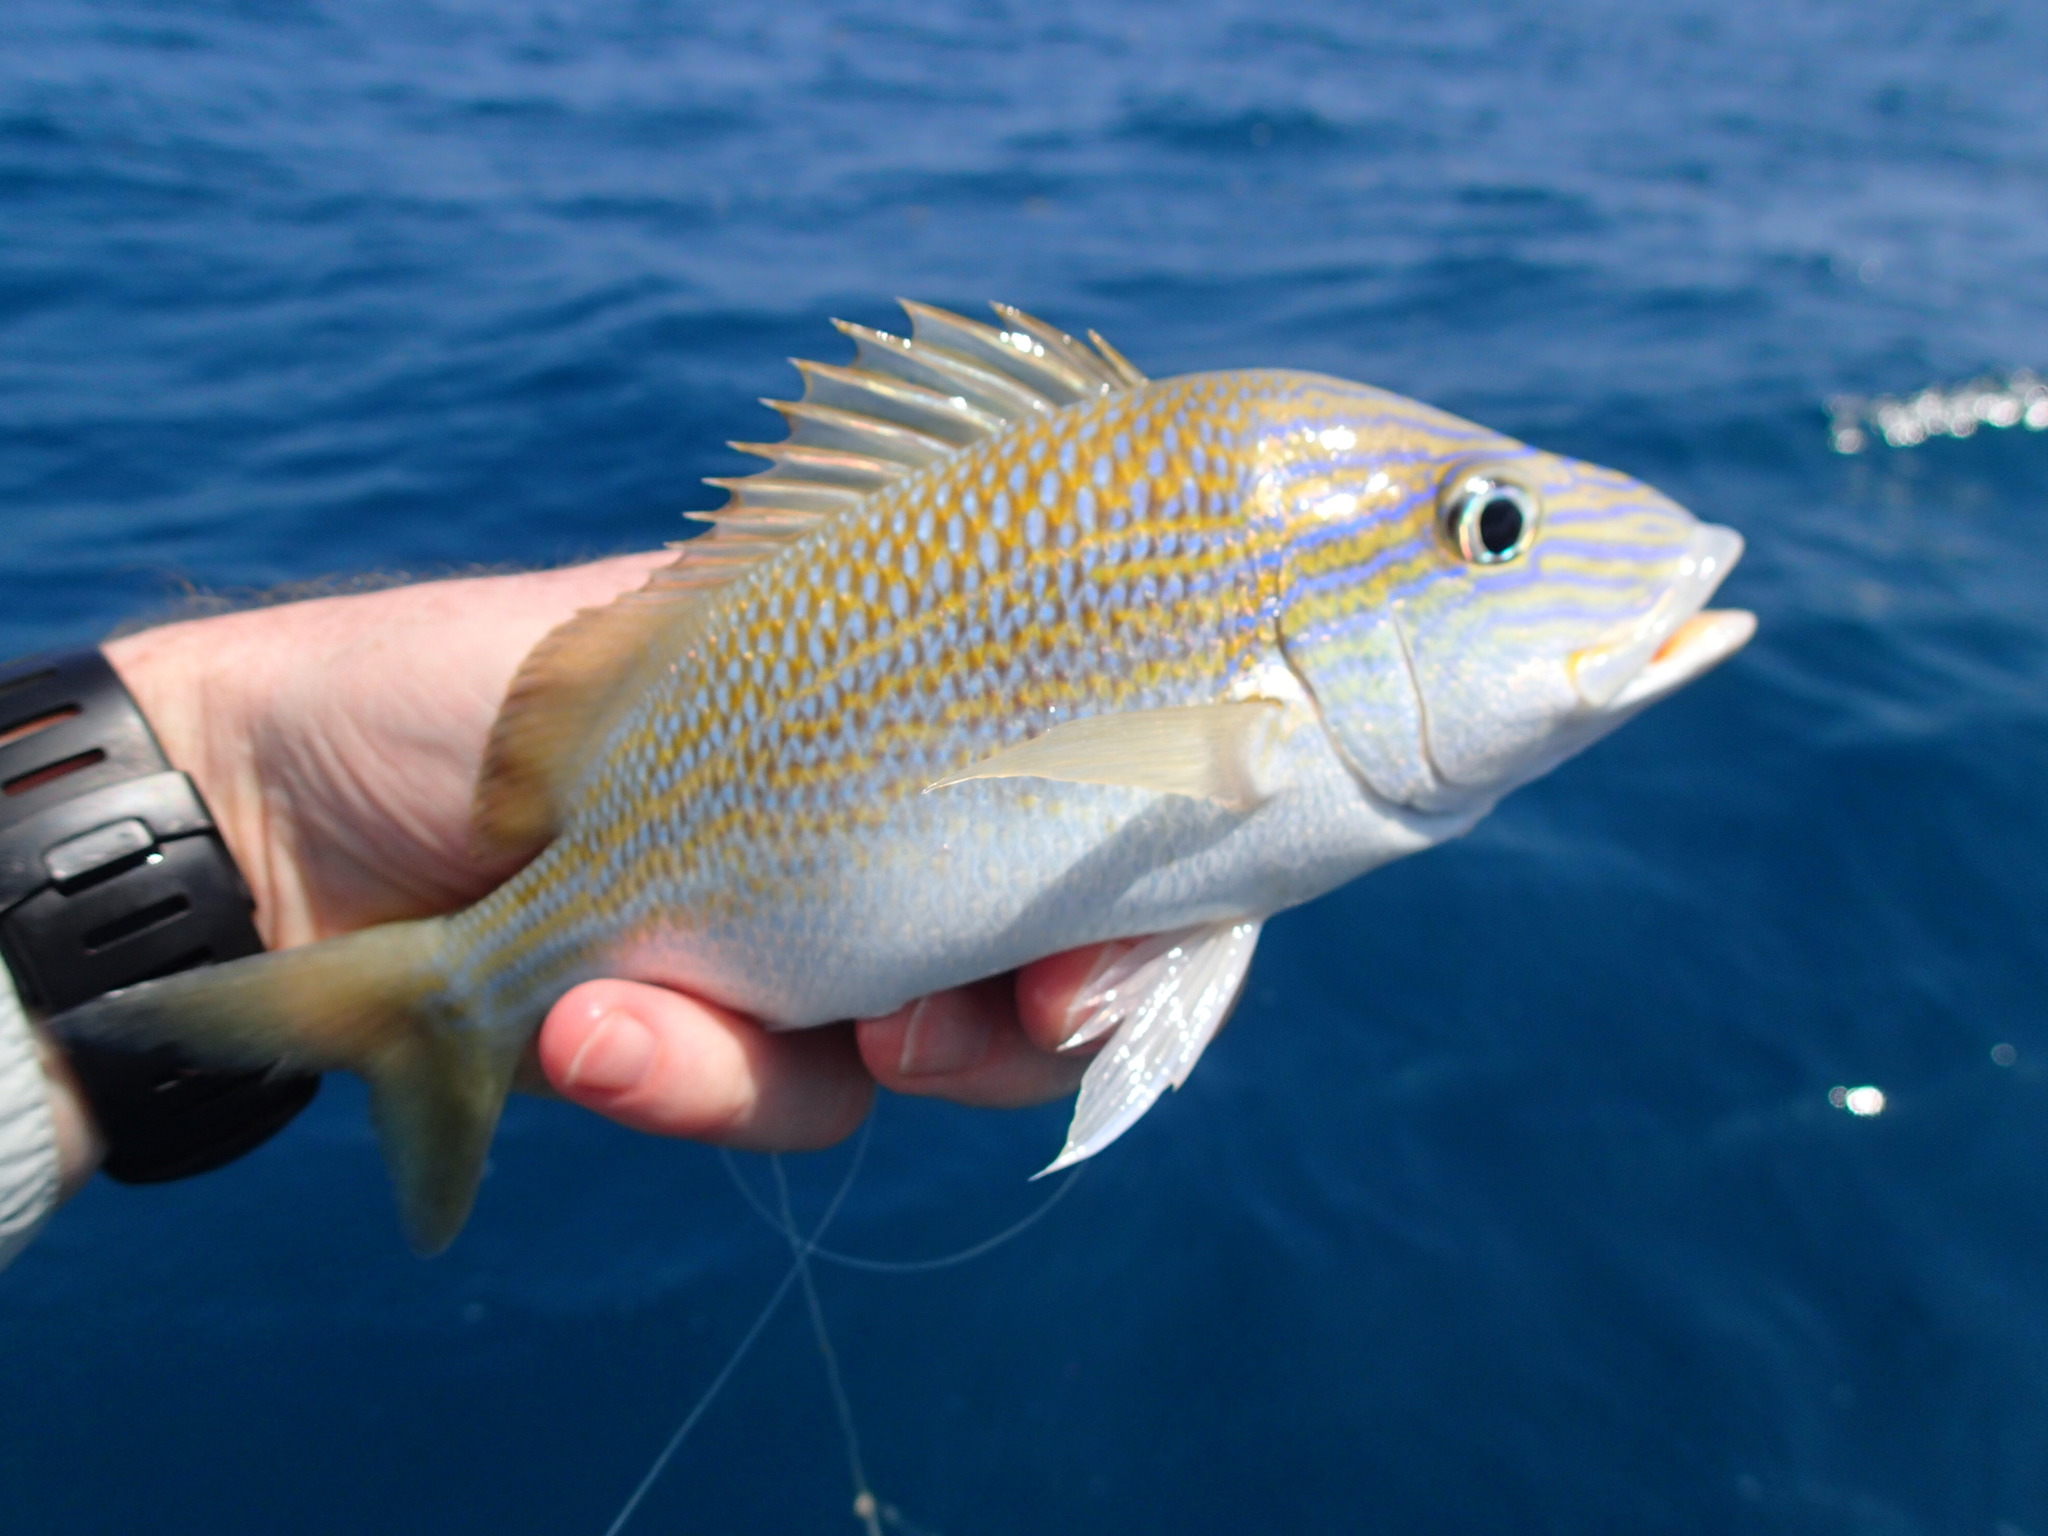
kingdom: Animalia
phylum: Chordata
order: Perciformes
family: Haemulidae
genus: Haemulon
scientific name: Haemulon plumierii
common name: White grunt
